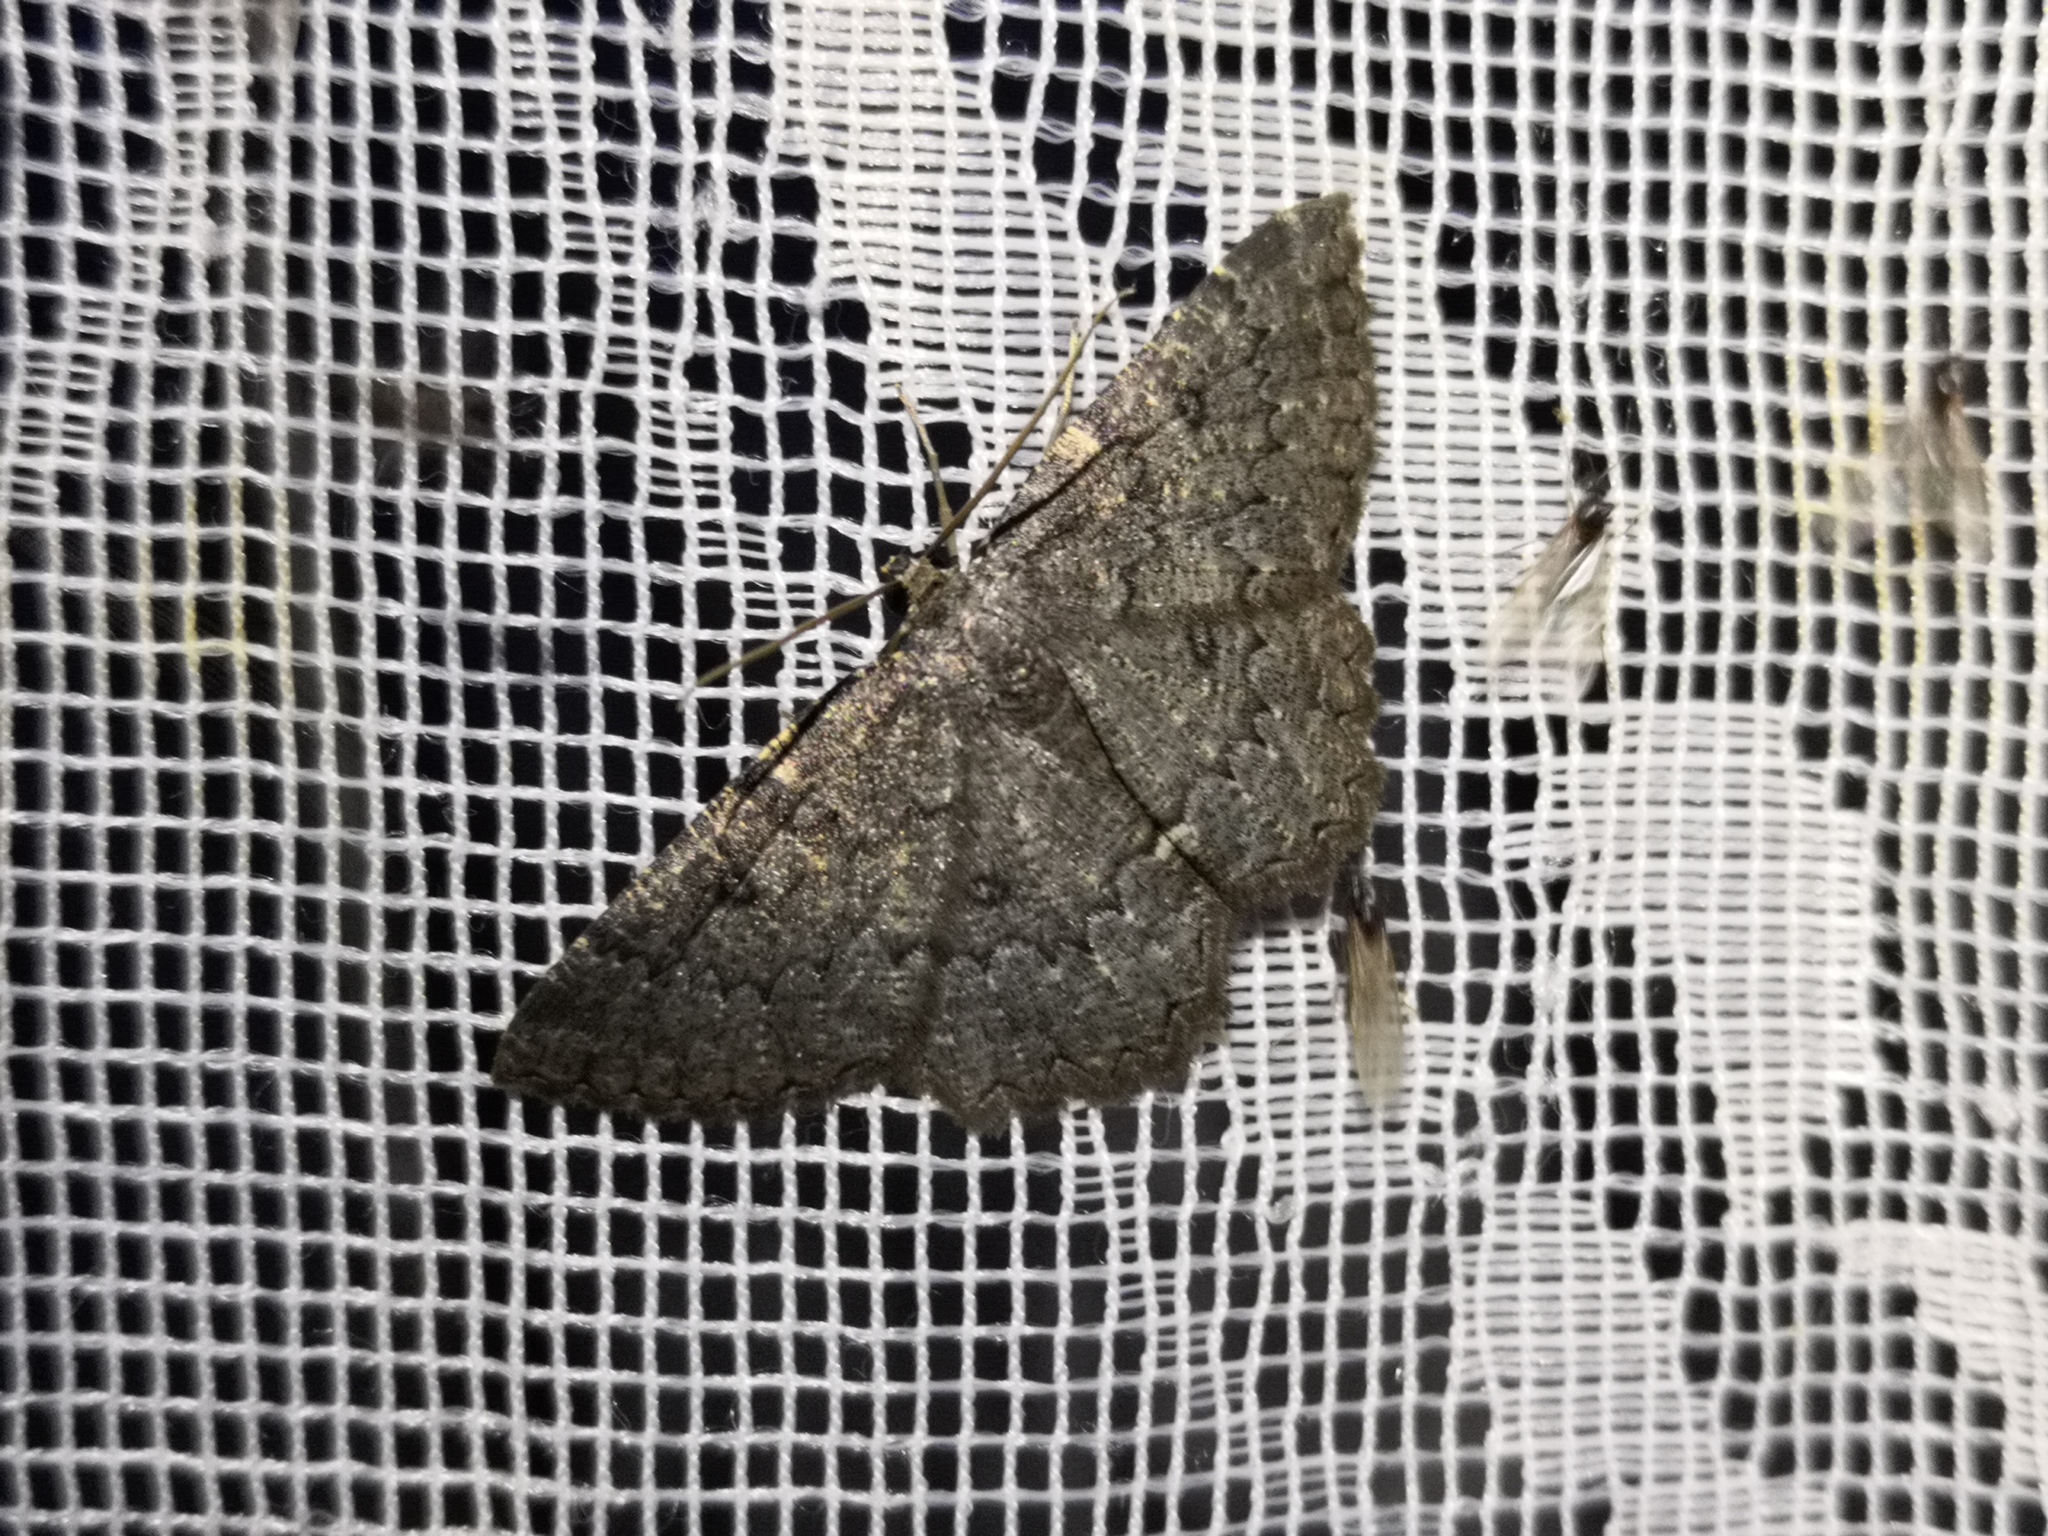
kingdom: Animalia
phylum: Arthropoda
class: Insecta
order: Lepidoptera
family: Geometridae
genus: Charissa
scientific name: Charissa obscurata
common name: Annulet
